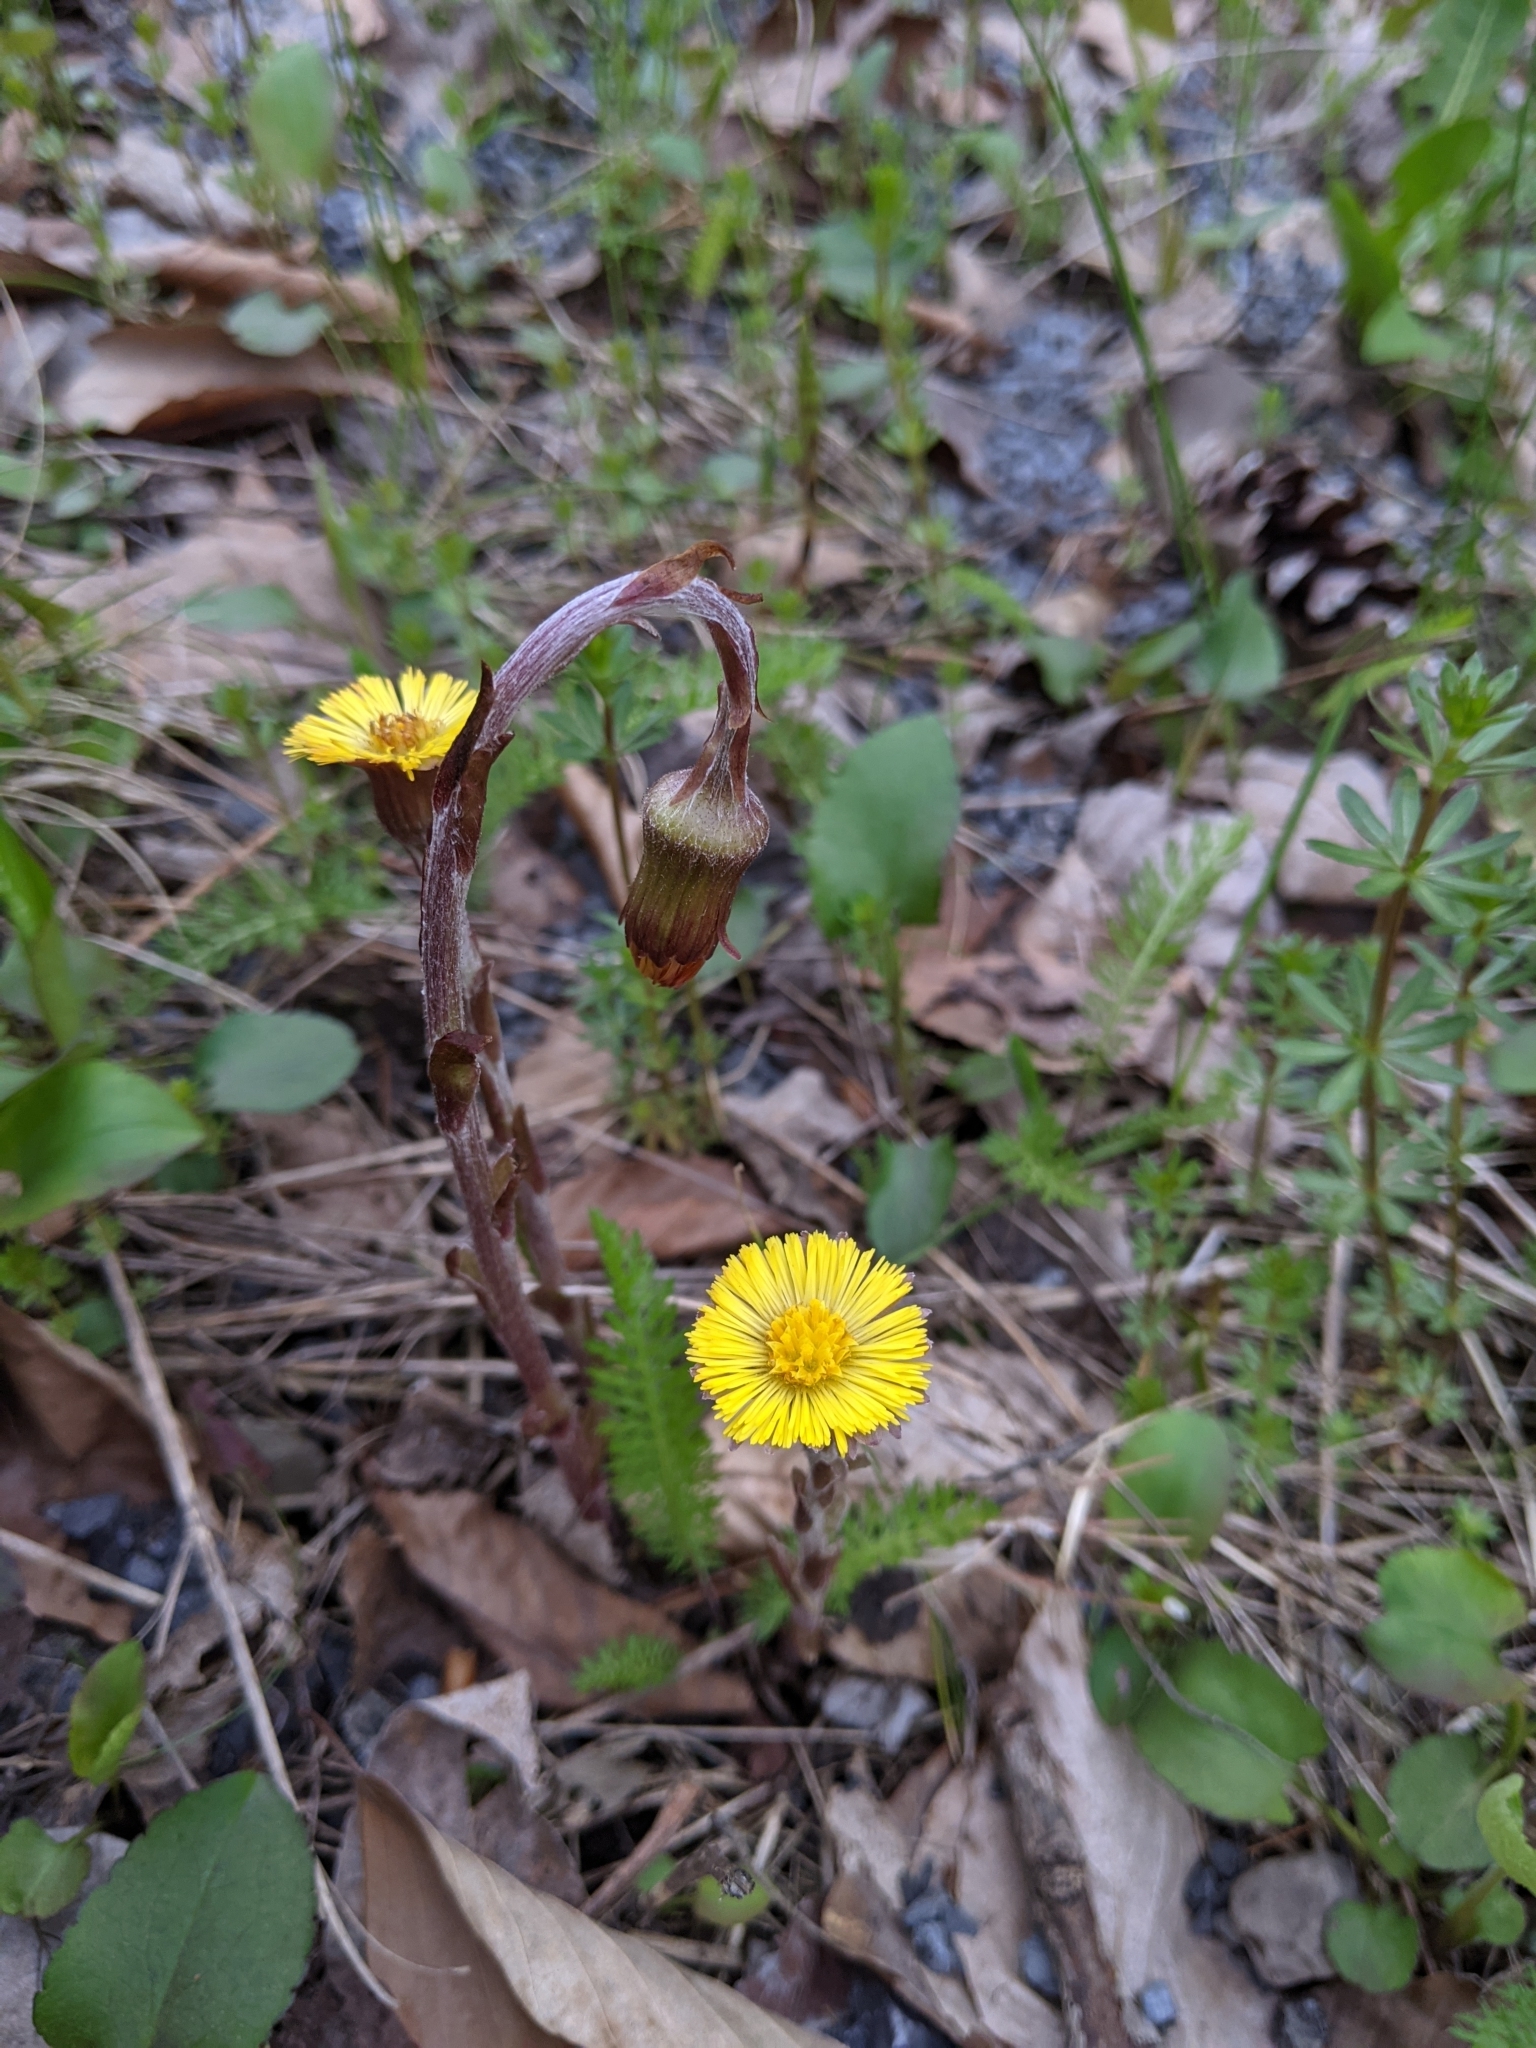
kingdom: Plantae
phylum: Tracheophyta
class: Magnoliopsida
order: Asterales
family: Asteraceae
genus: Tussilago
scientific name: Tussilago farfara
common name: Coltsfoot
